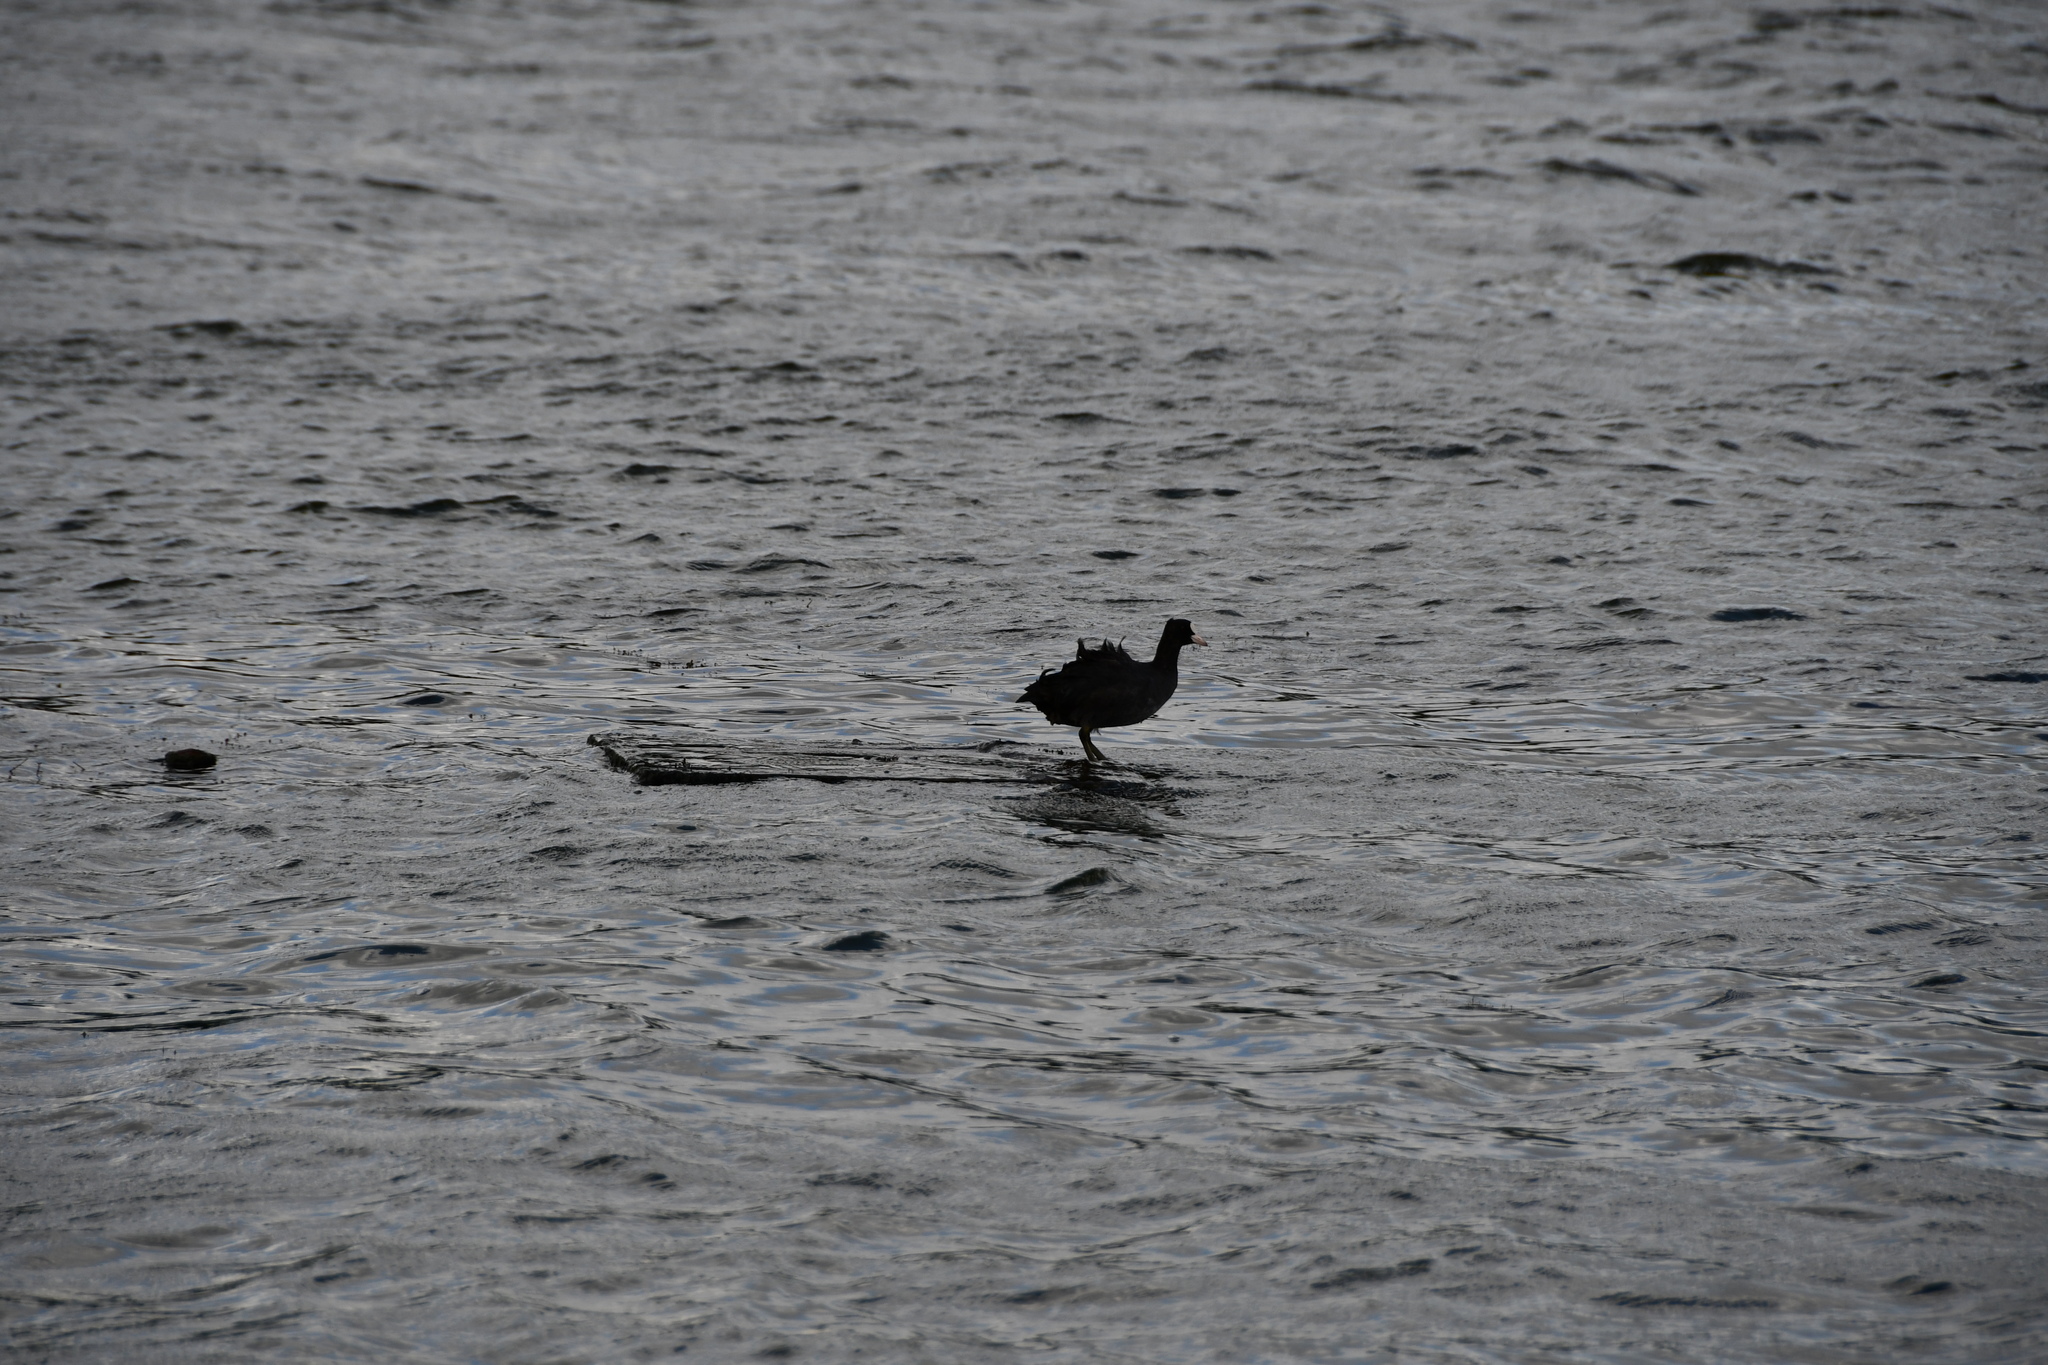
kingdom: Animalia
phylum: Chordata
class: Aves
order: Gruiformes
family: Rallidae
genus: Fulica
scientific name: Fulica atra
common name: Eurasian coot
